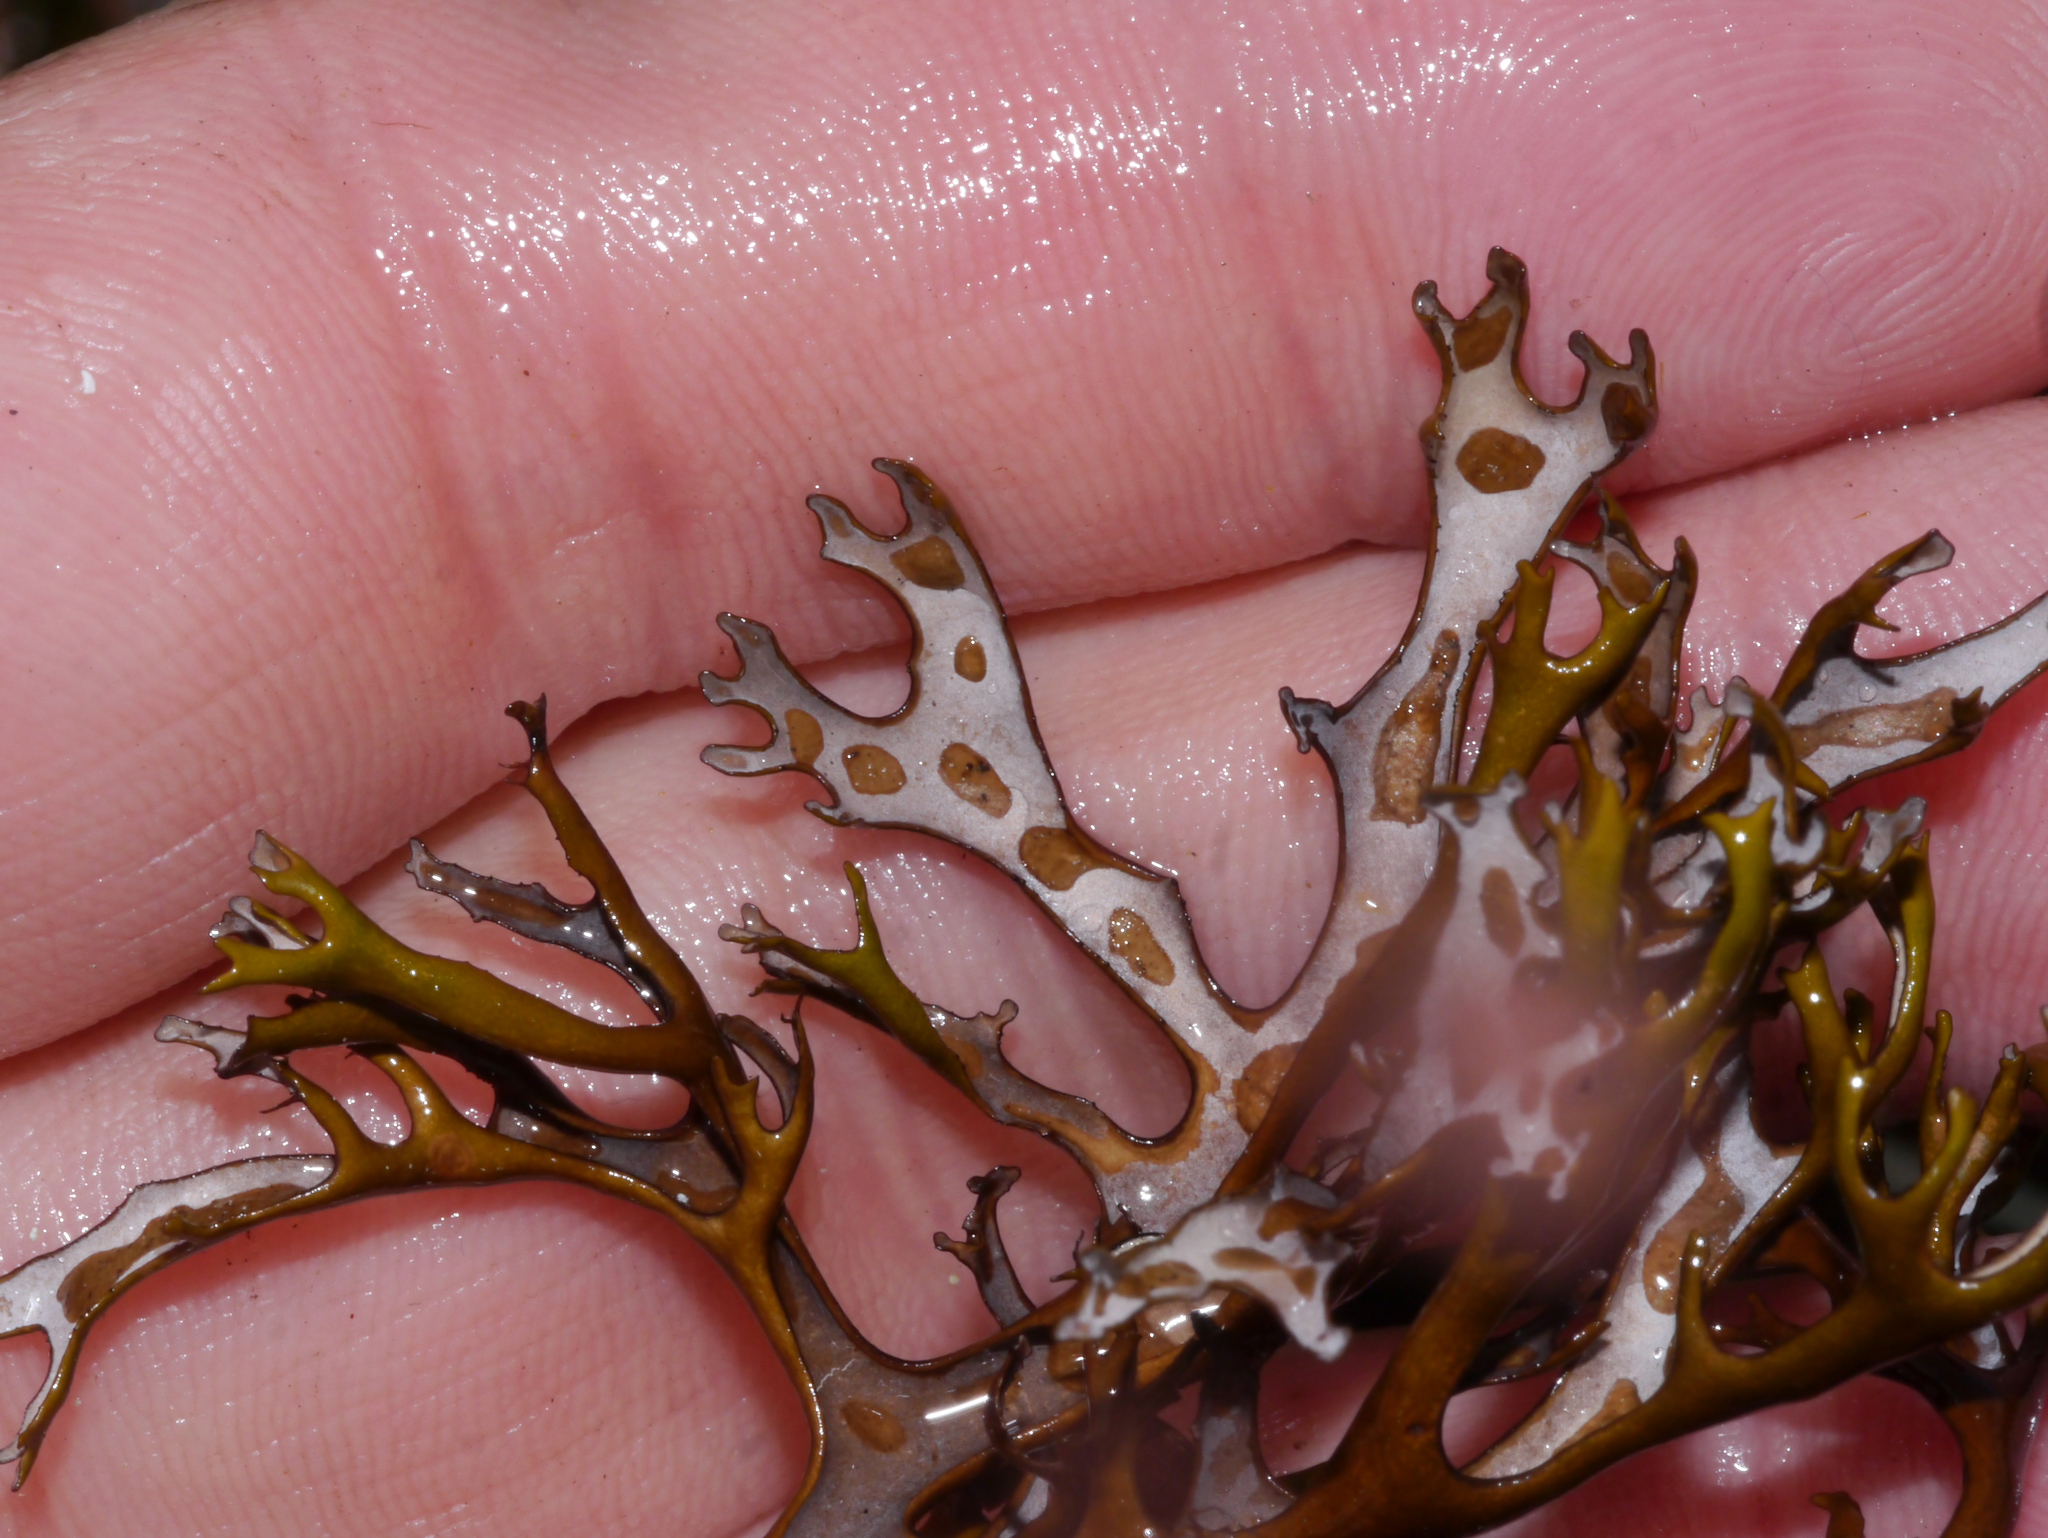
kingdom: Fungi
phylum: Ascomycota
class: Lecanoromycetes
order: Lecanorales
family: Parmeliaceae
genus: Nephromopsis
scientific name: Nephromopsis richardsonii
